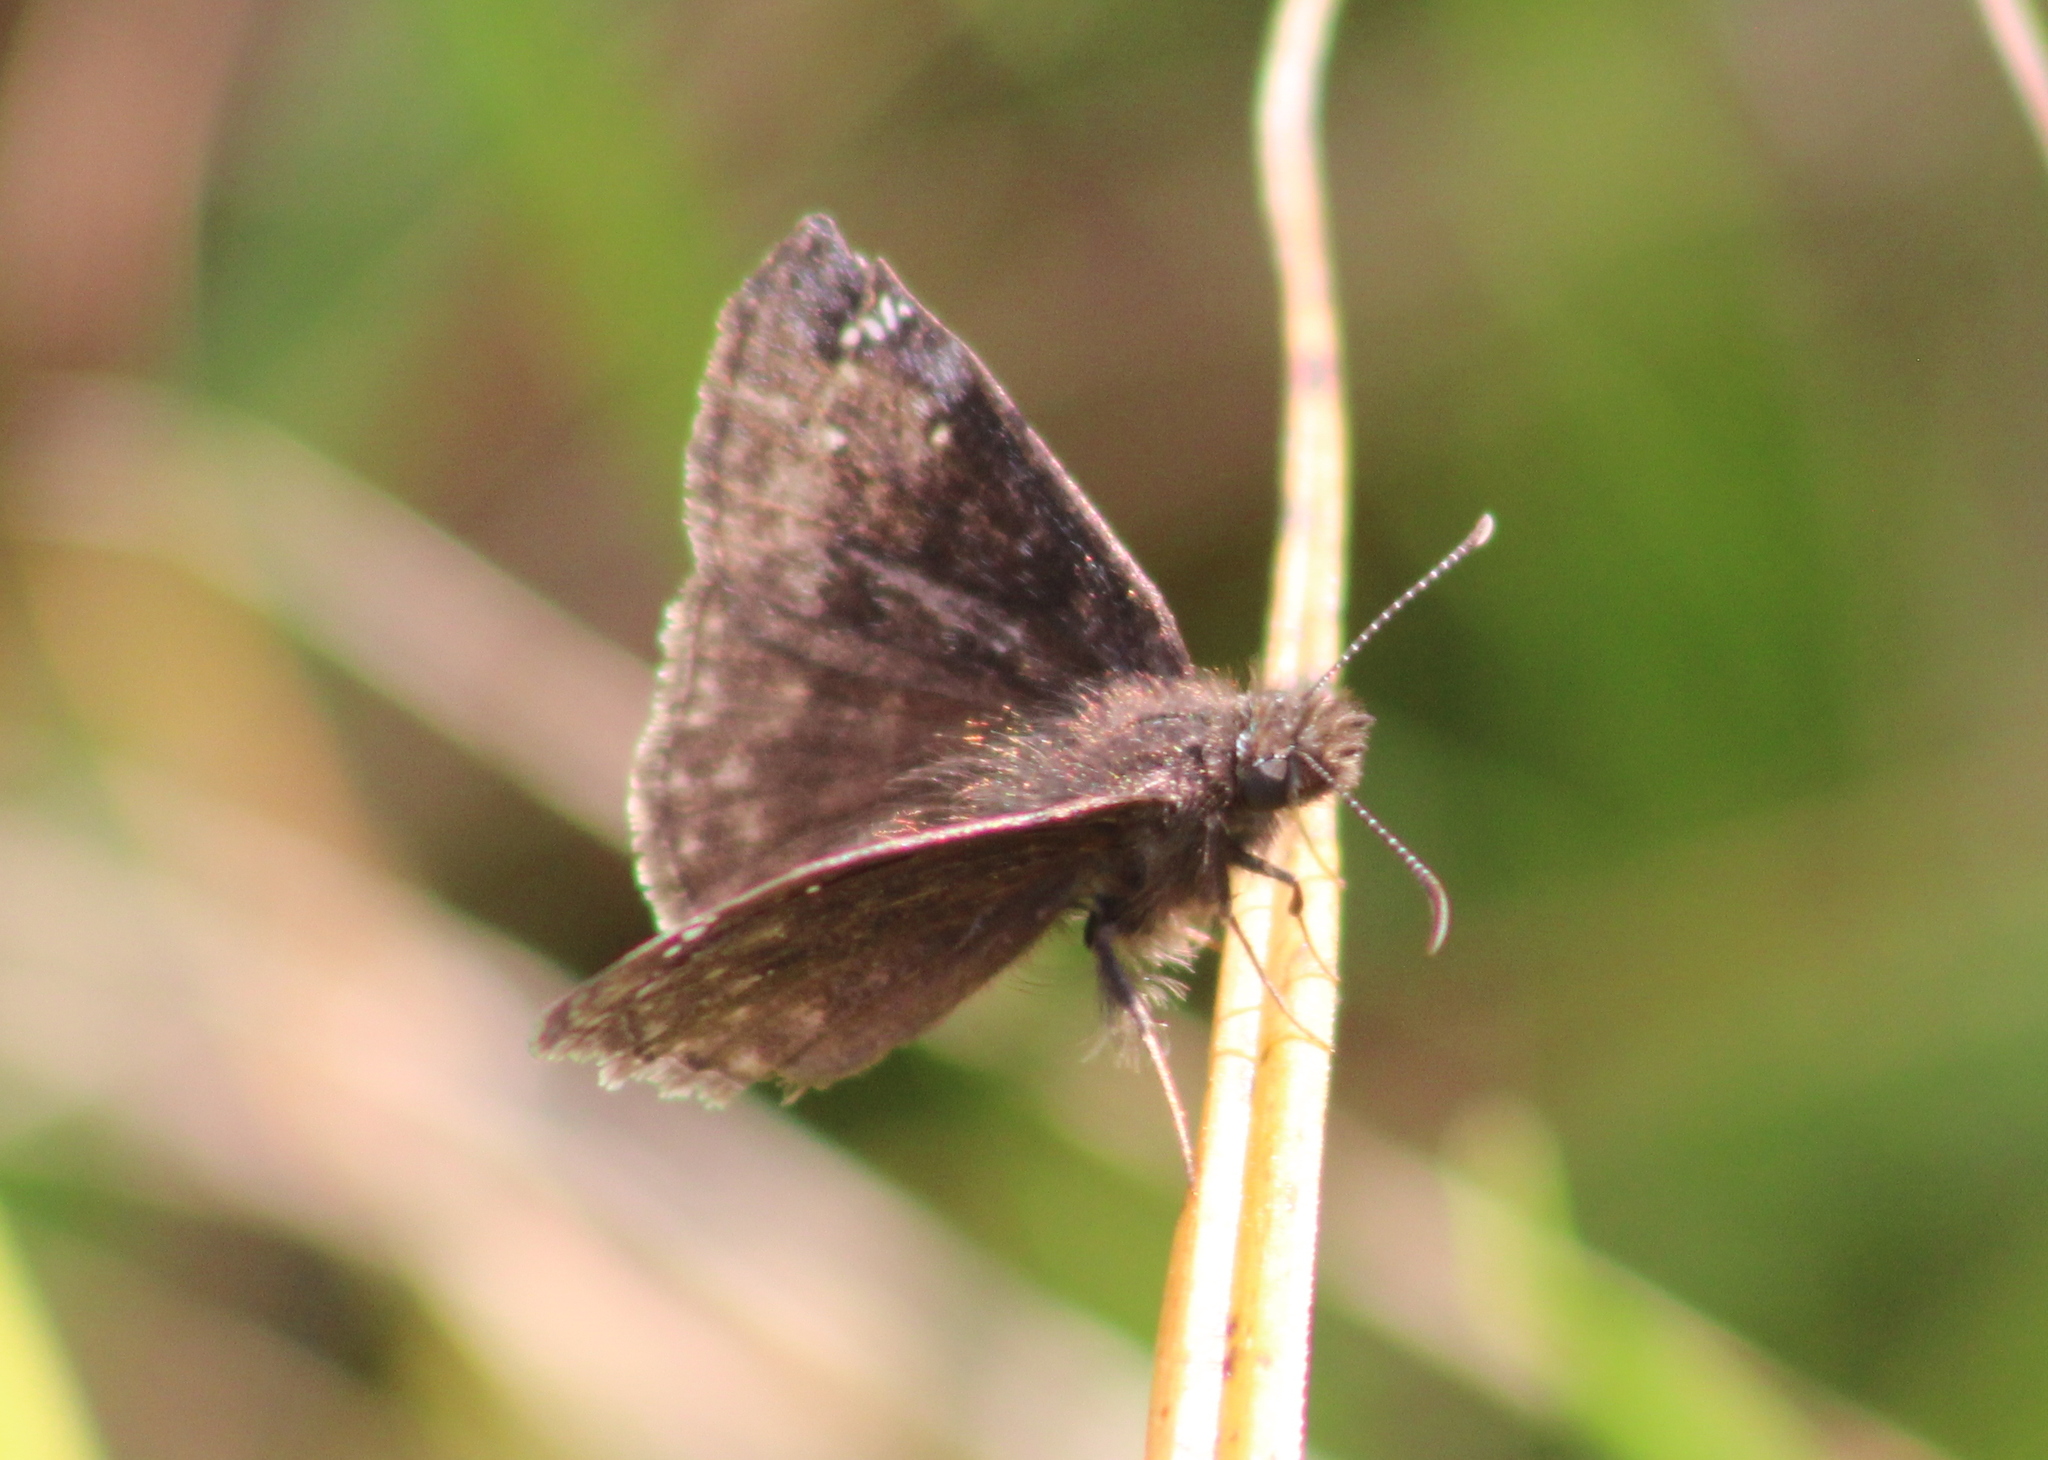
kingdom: Animalia
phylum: Arthropoda
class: Insecta
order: Lepidoptera
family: Hesperiidae
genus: Erynnis
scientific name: Erynnis baptisiae
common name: Wild indigo duskywing
